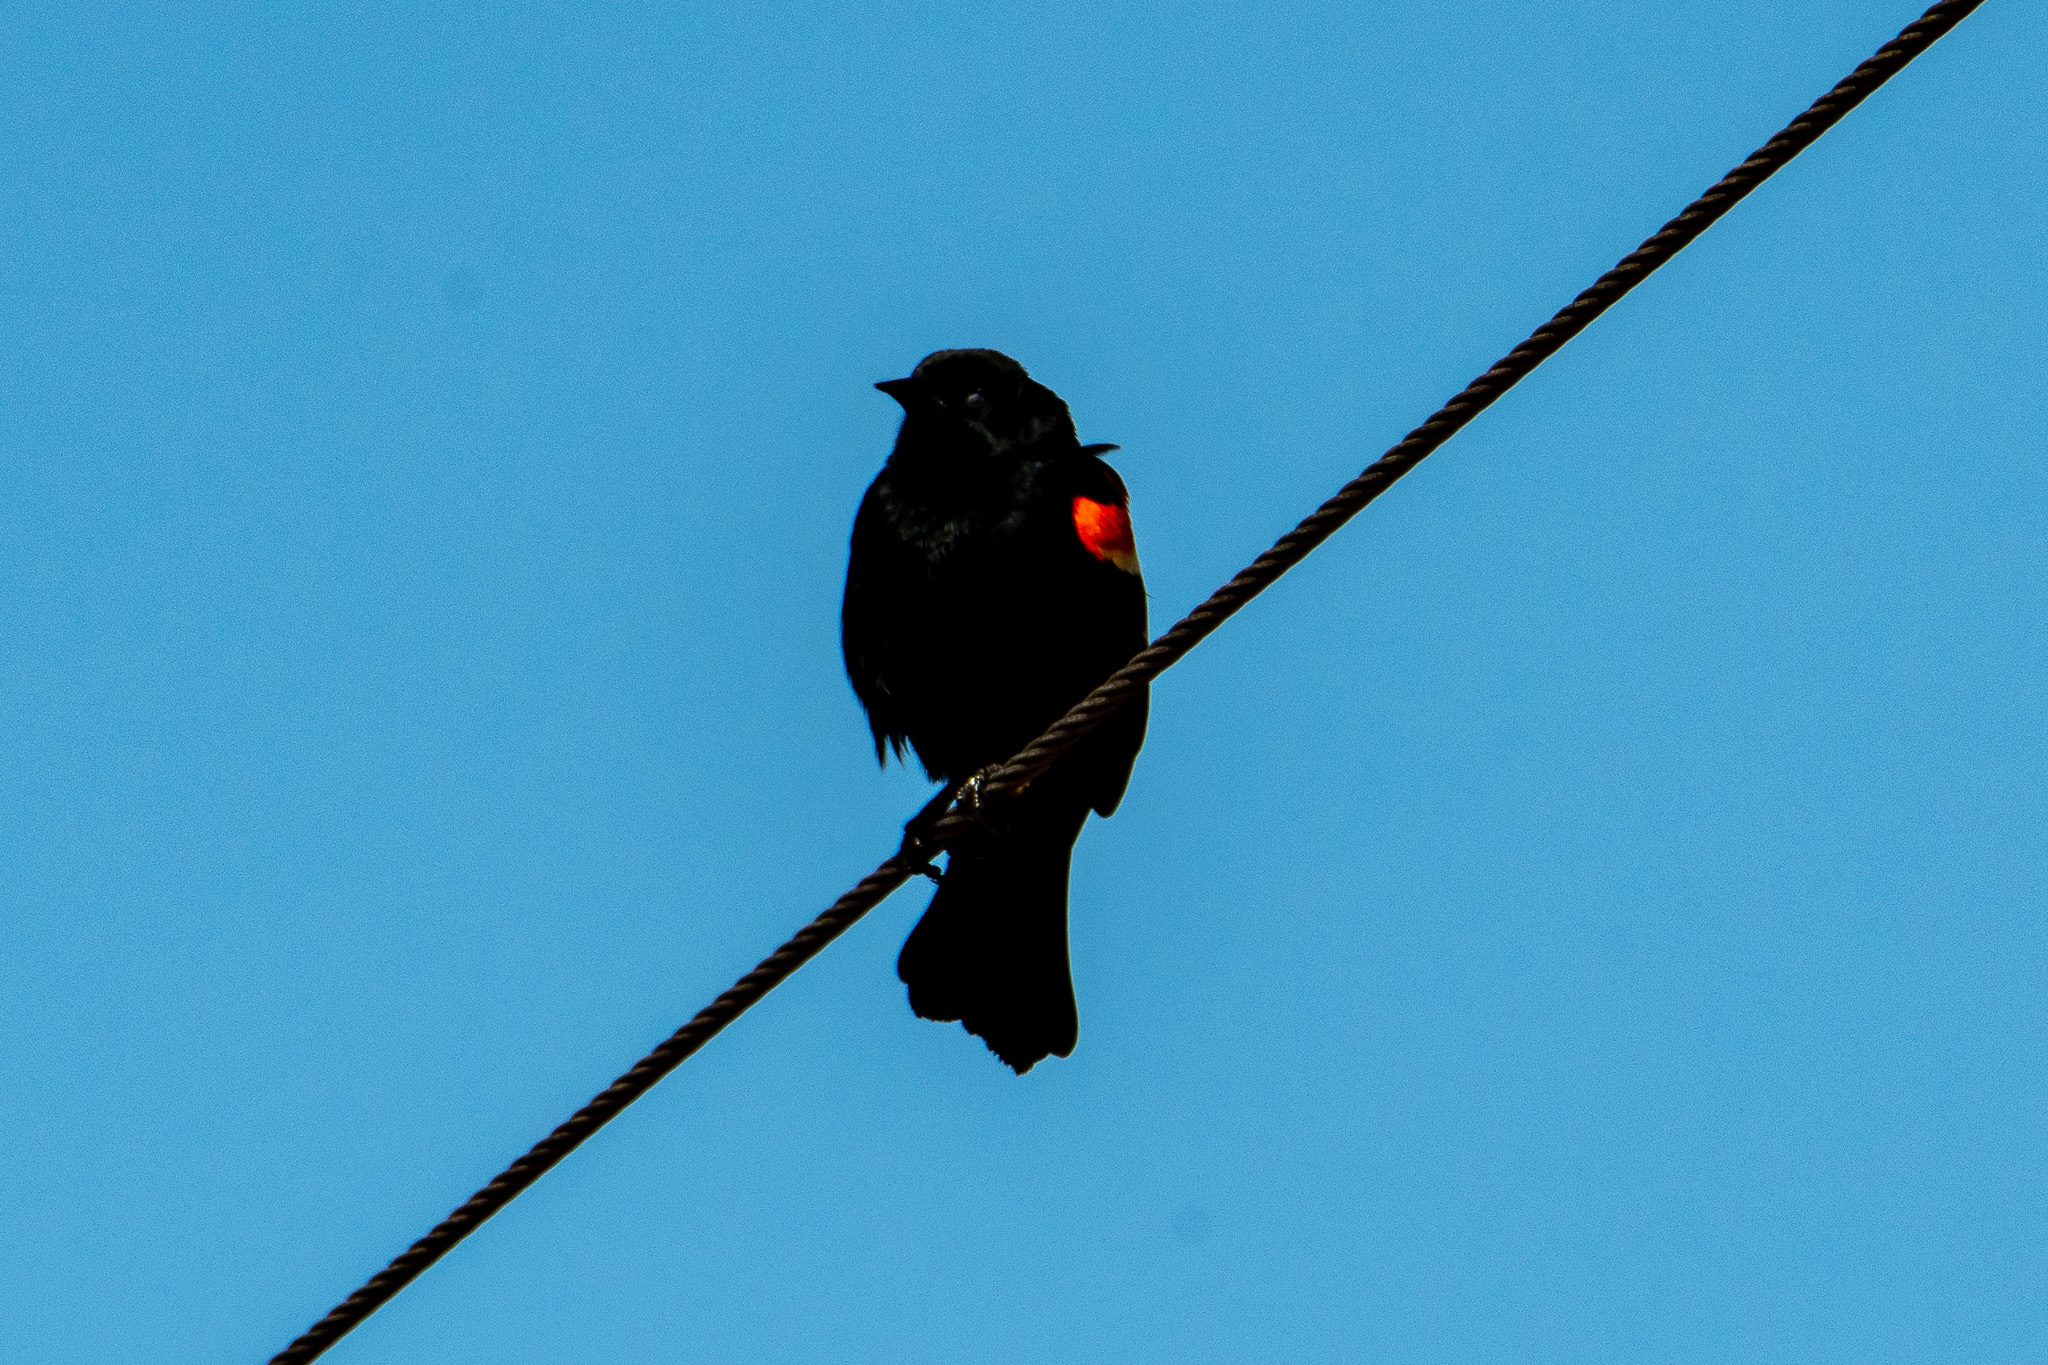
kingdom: Animalia
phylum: Chordata
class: Aves
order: Passeriformes
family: Icteridae
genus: Agelaius
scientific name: Agelaius phoeniceus
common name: Red-winged blackbird
